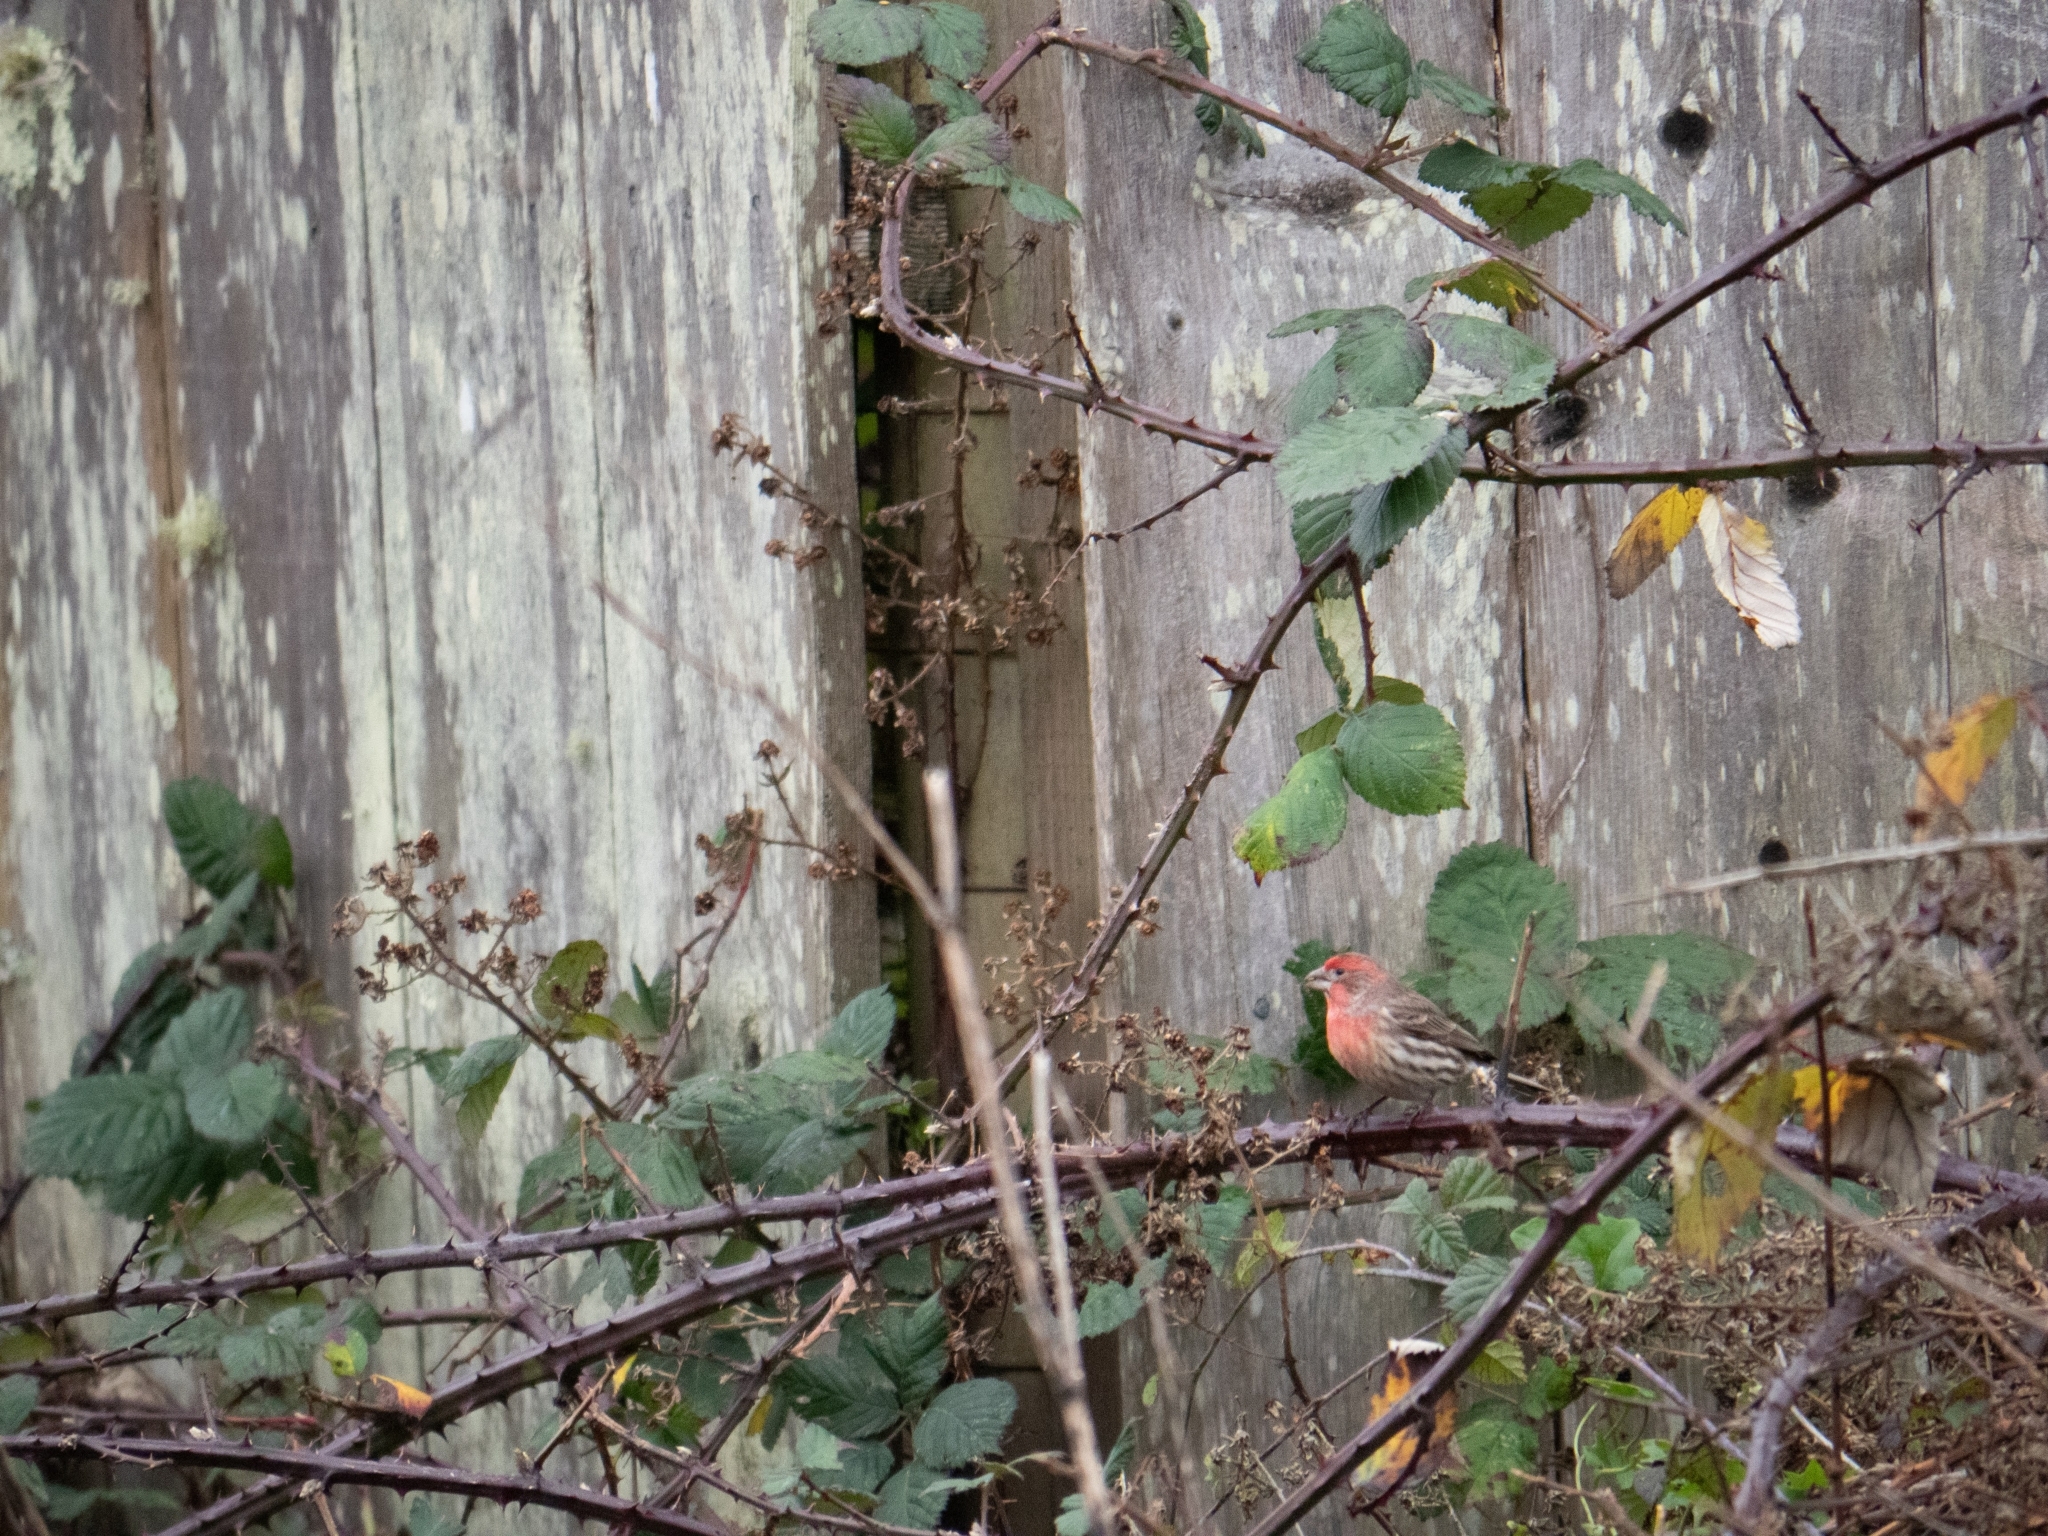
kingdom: Animalia
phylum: Chordata
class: Aves
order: Passeriformes
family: Fringillidae
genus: Haemorhous
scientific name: Haemorhous mexicanus
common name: House finch
